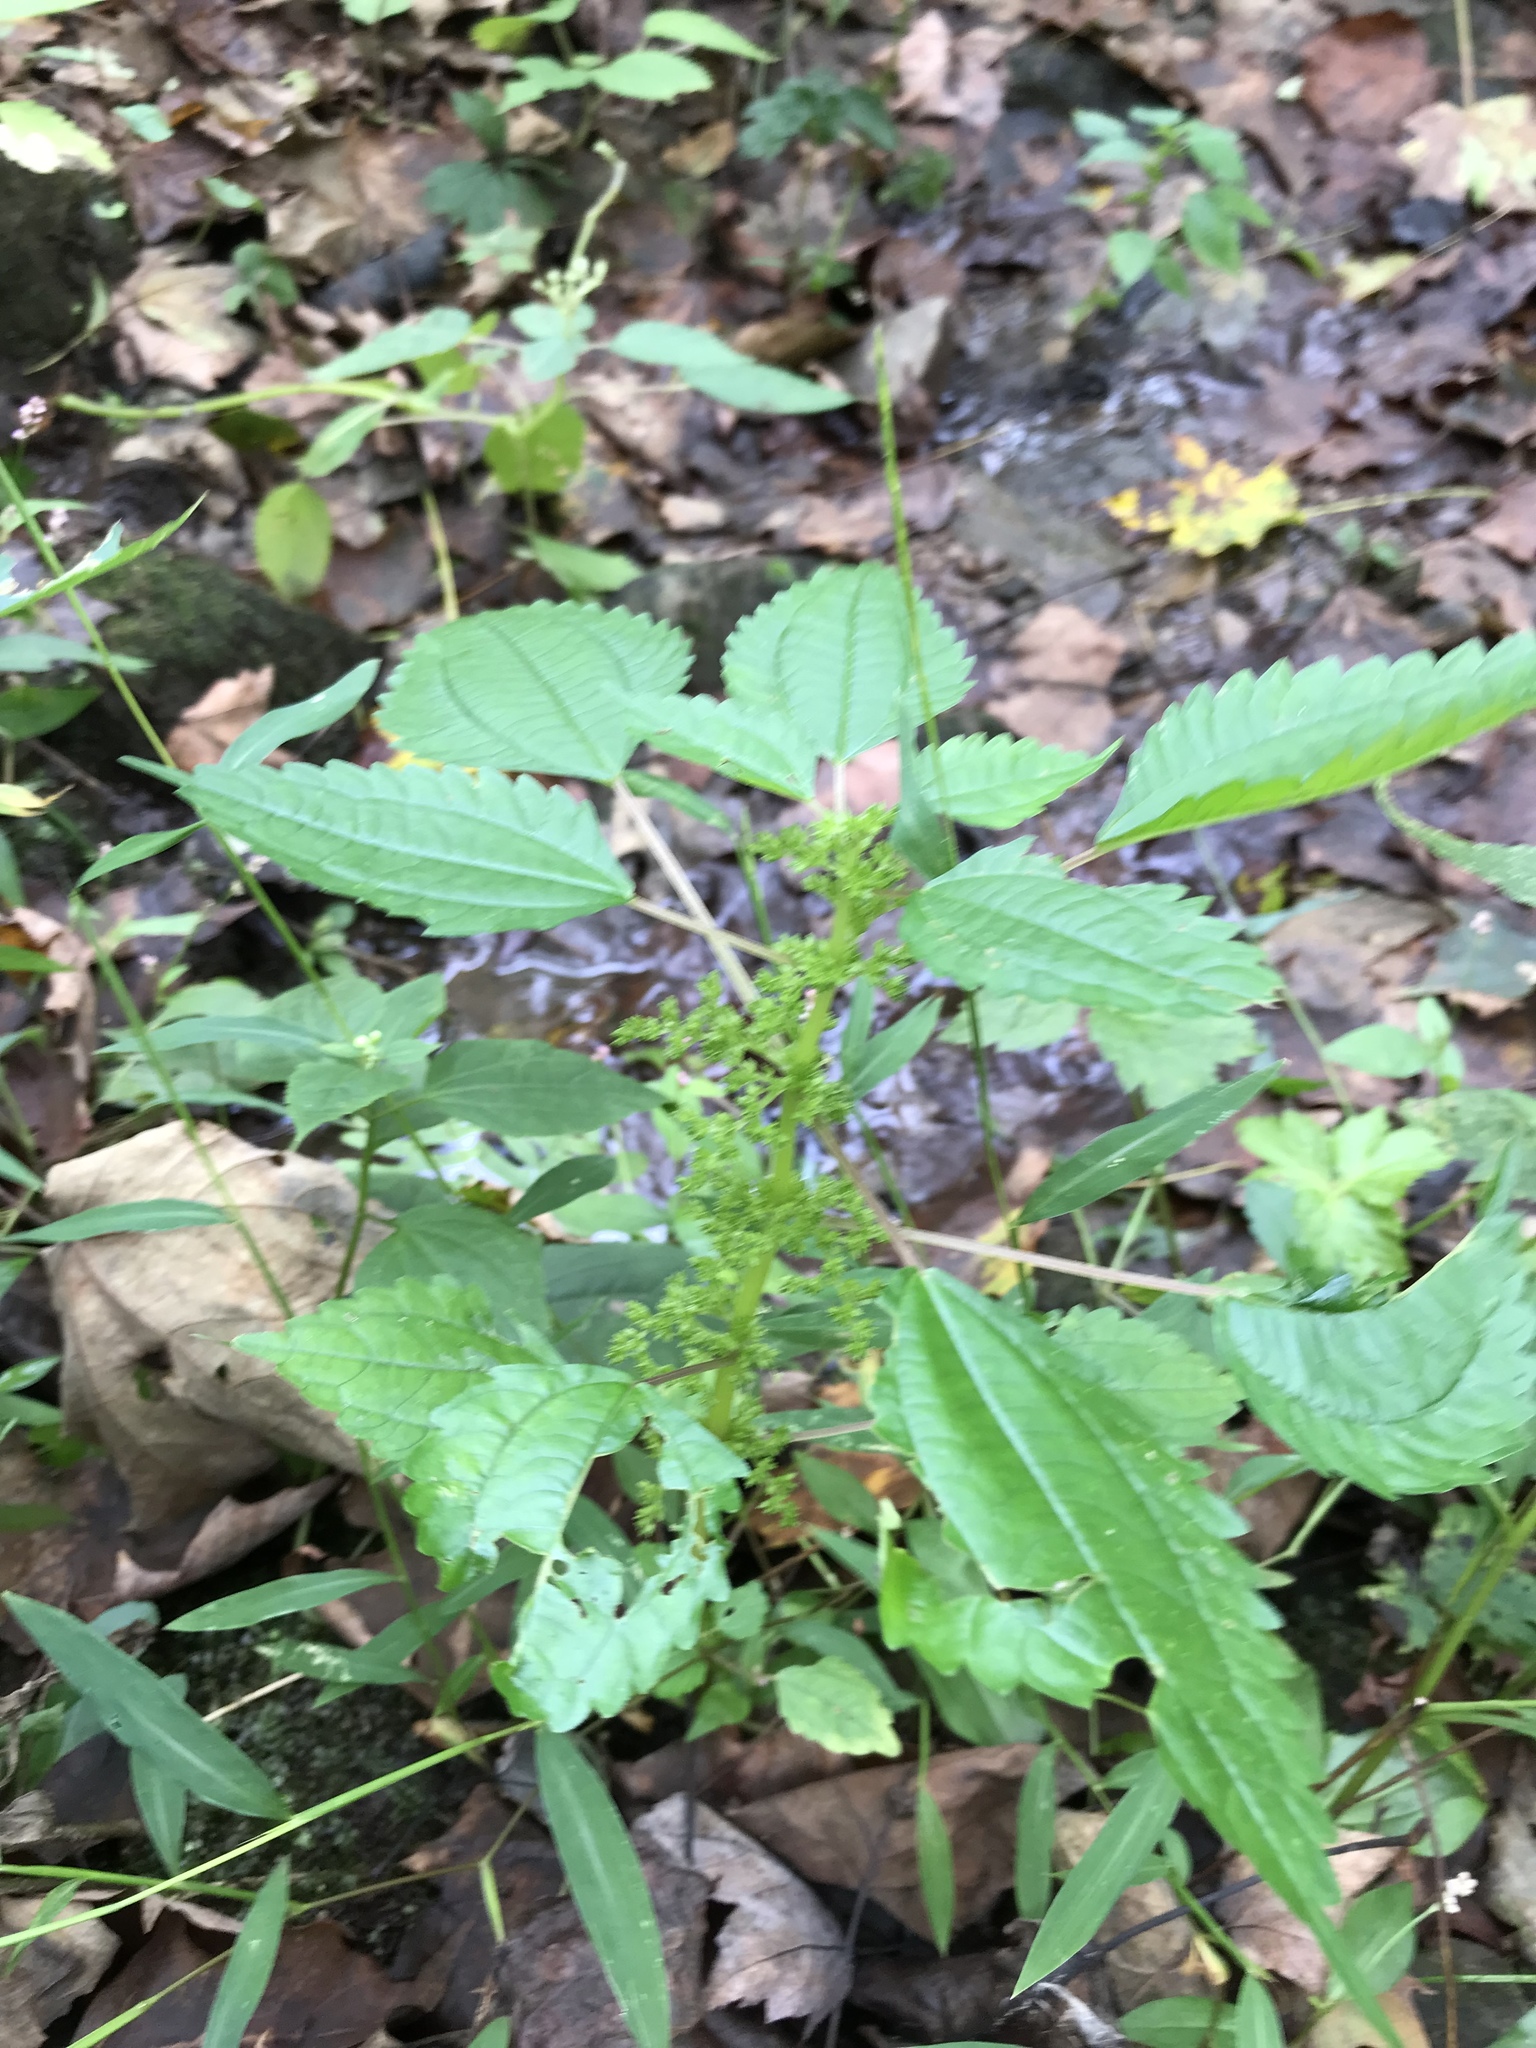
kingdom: Plantae
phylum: Tracheophyta
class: Magnoliopsida
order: Rosales
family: Urticaceae
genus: Pilea
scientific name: Pilea pumila
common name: Clearweed
